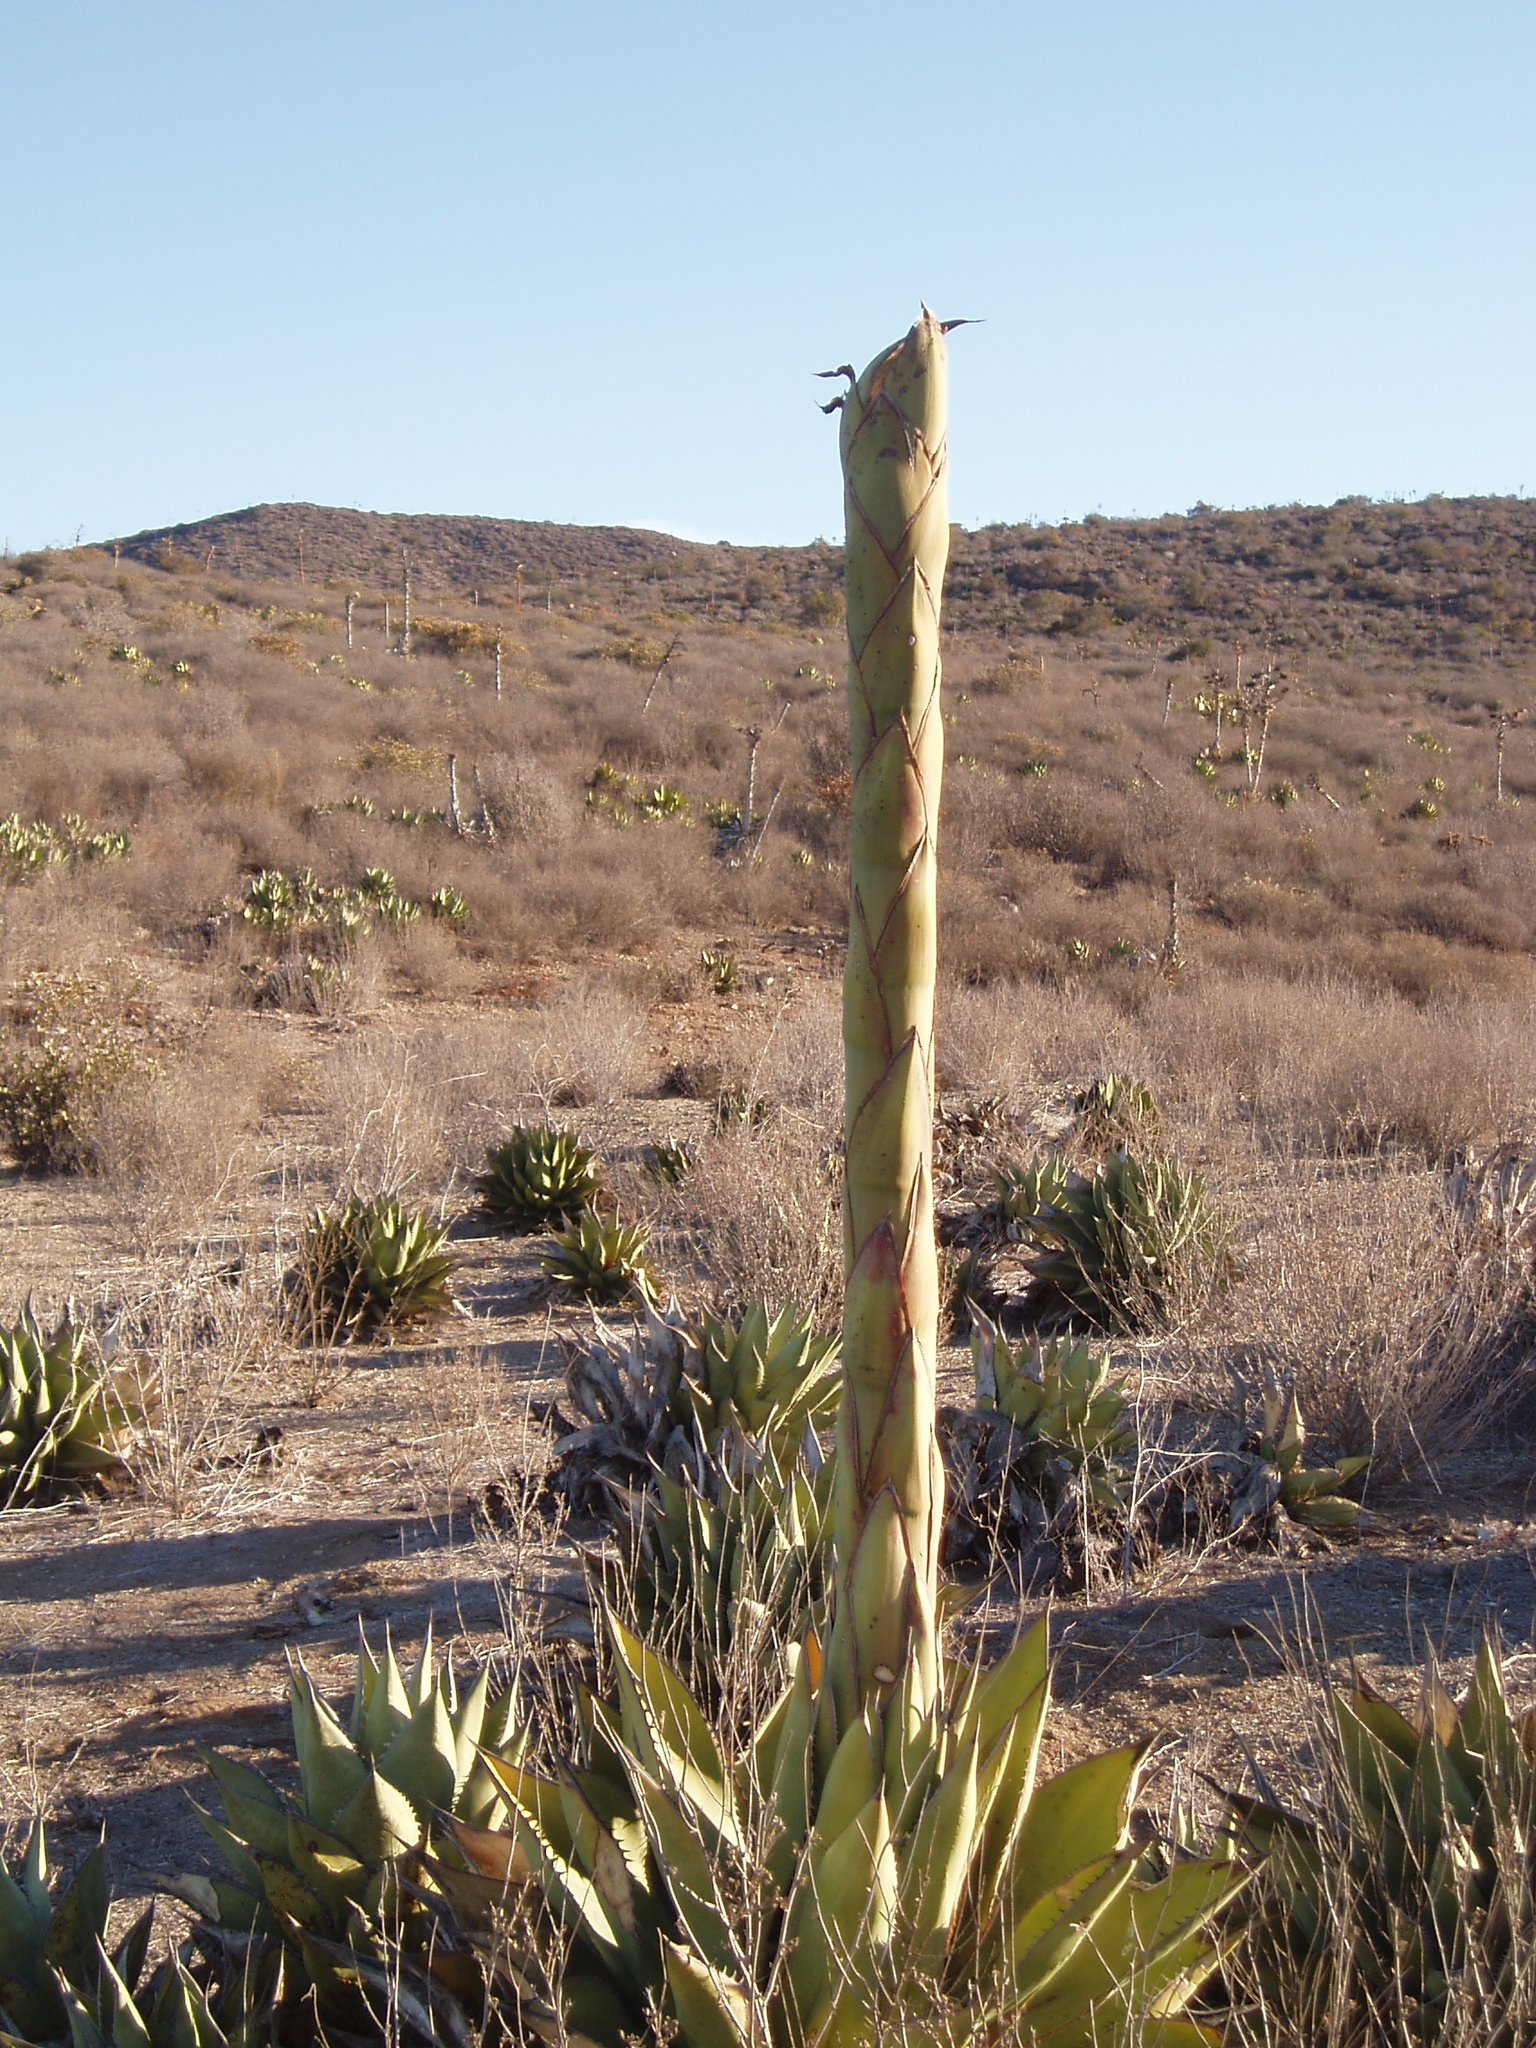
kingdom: Plantae
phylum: Tracheophyta
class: Liliopsida
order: Asparagales
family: Asparagaceae
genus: Agave
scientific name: Agave shawii
